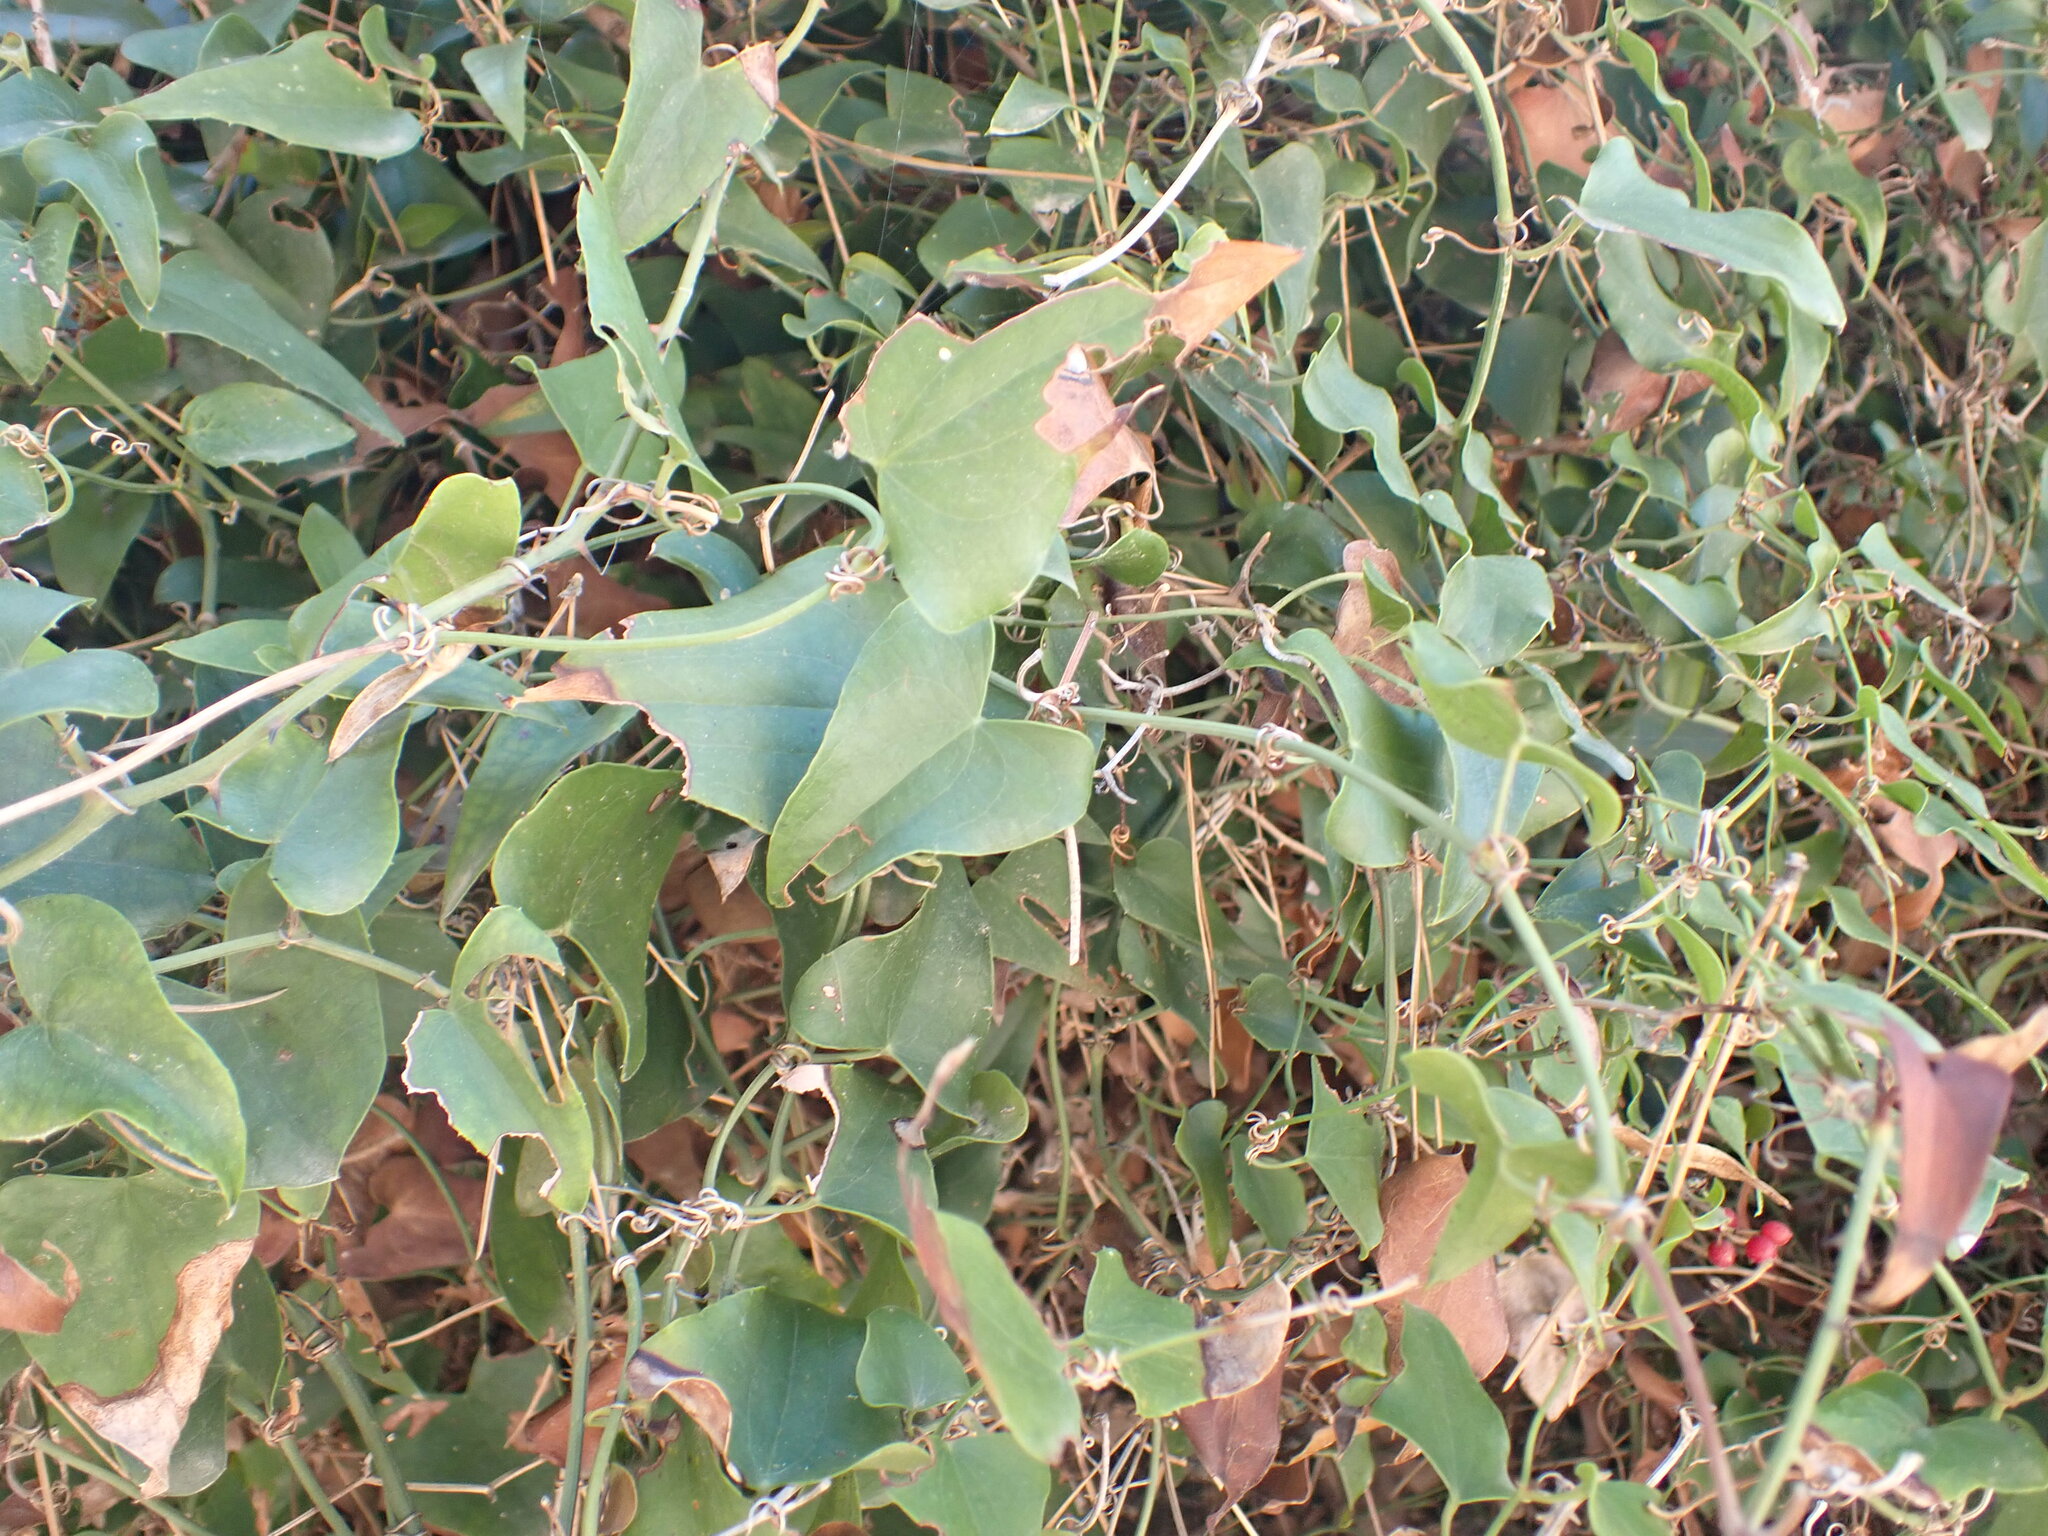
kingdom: Plantae
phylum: Tracheophyta
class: Liliopsida
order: Liliales
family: Smilacaceae
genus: Smilax
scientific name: Smilax aspera
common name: Common smilax
